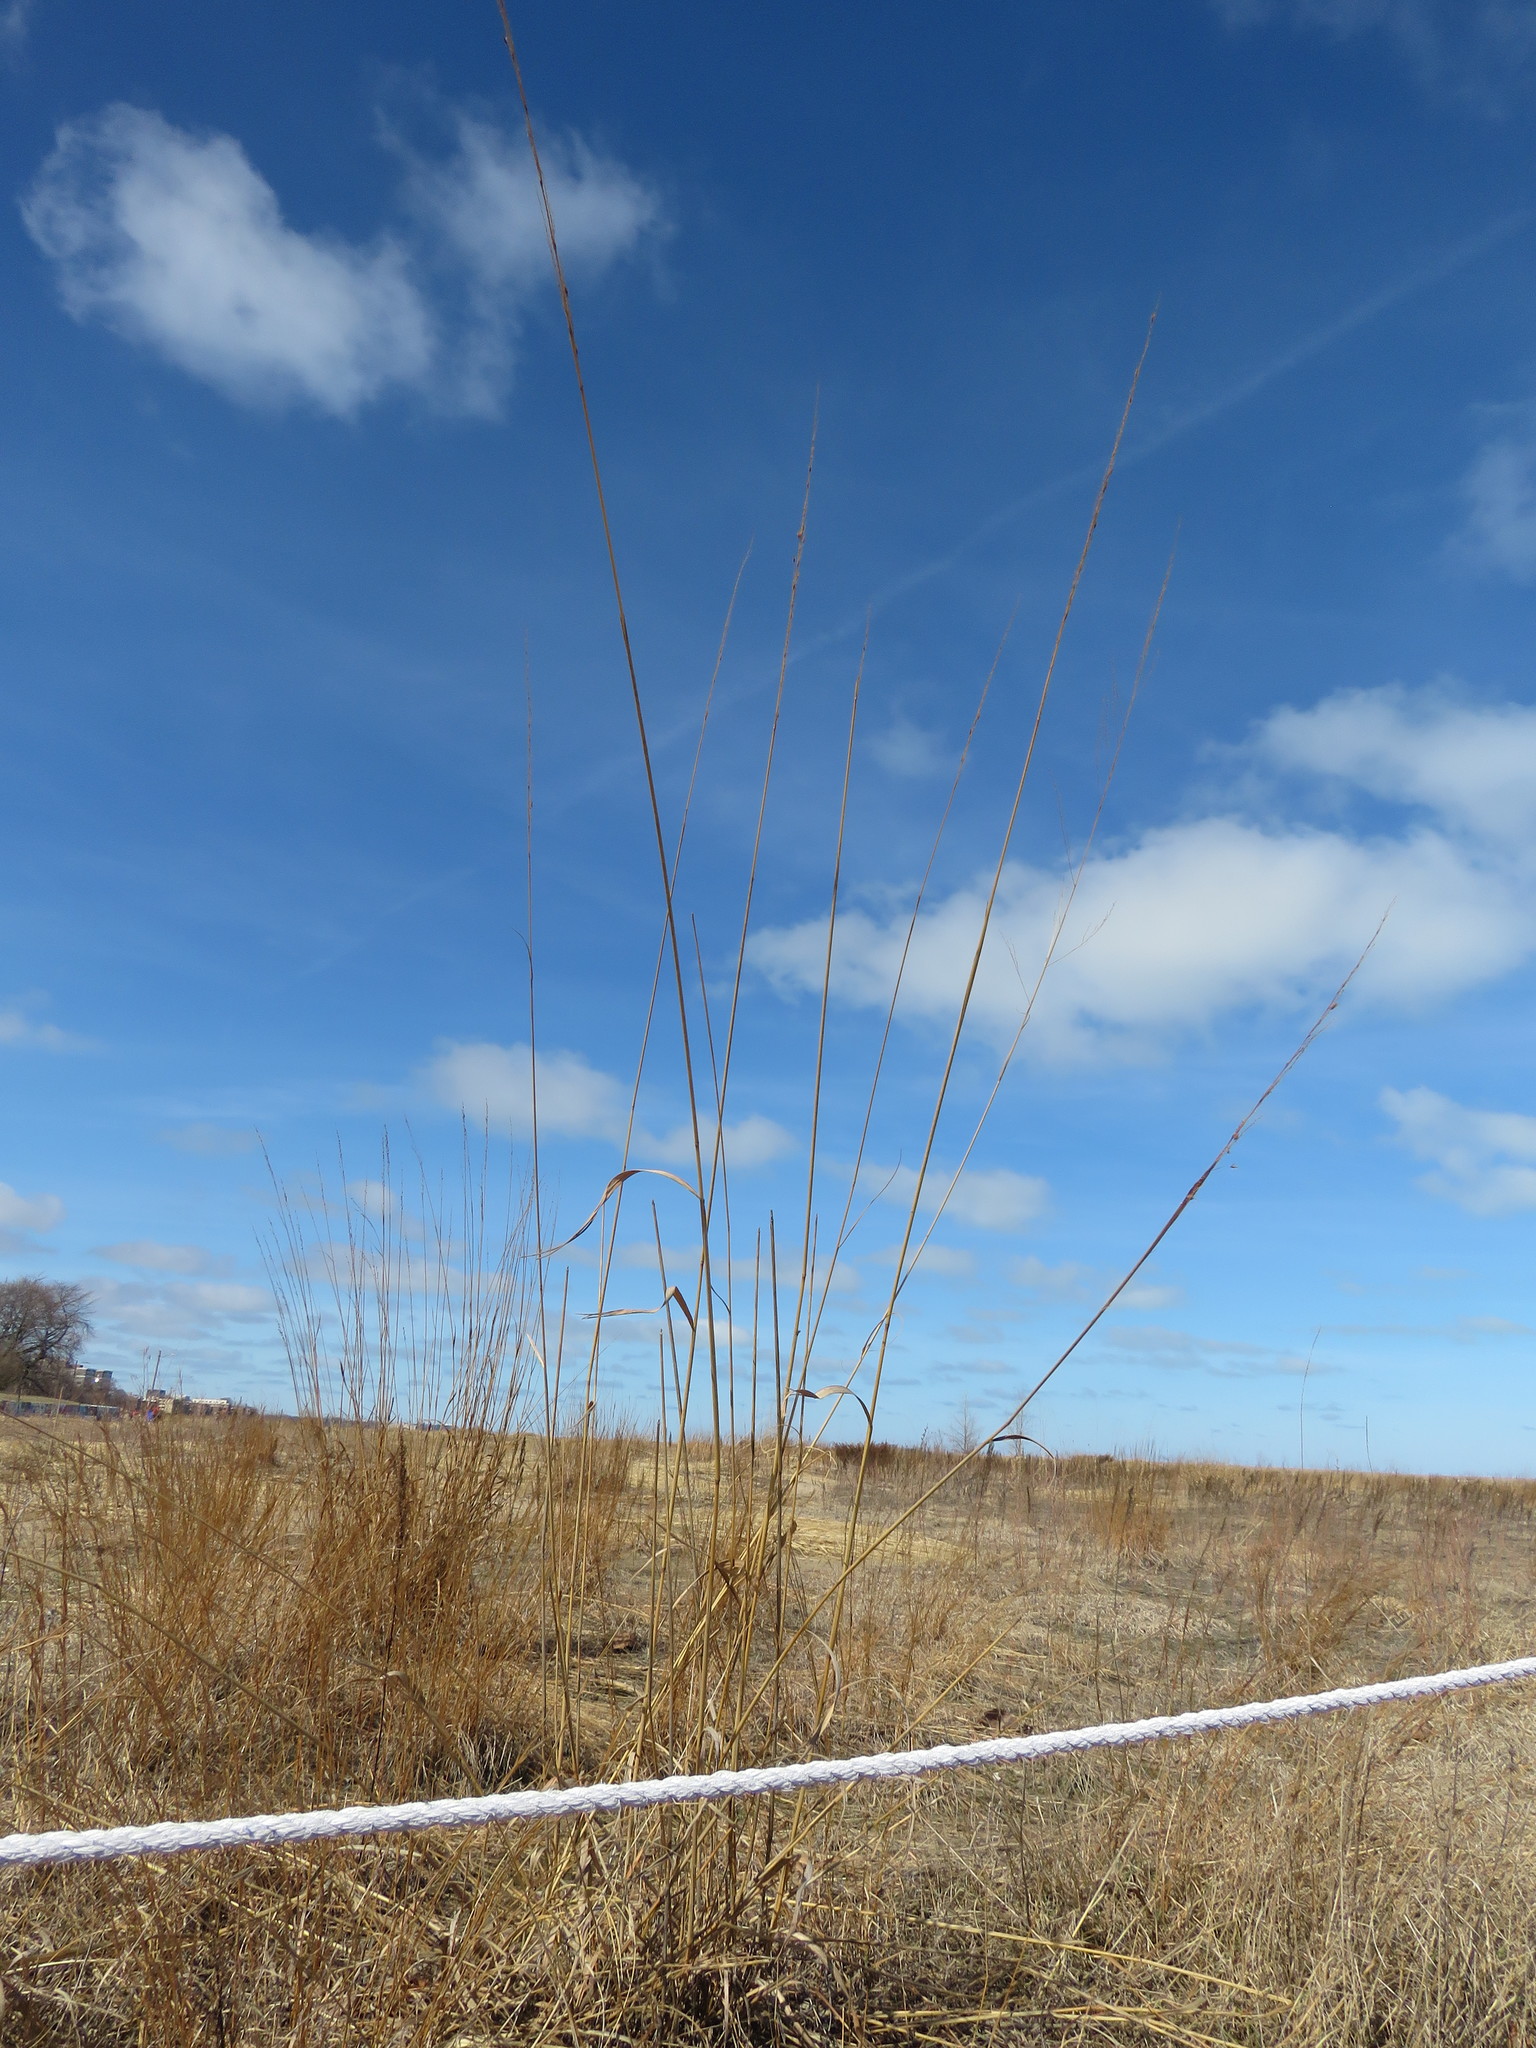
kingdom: Plantae
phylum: Tracheophyta
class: Liliopsida
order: Poales
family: Poaceae
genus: Sorghastrum
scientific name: Sorghastrum nutans
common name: Indian grass
